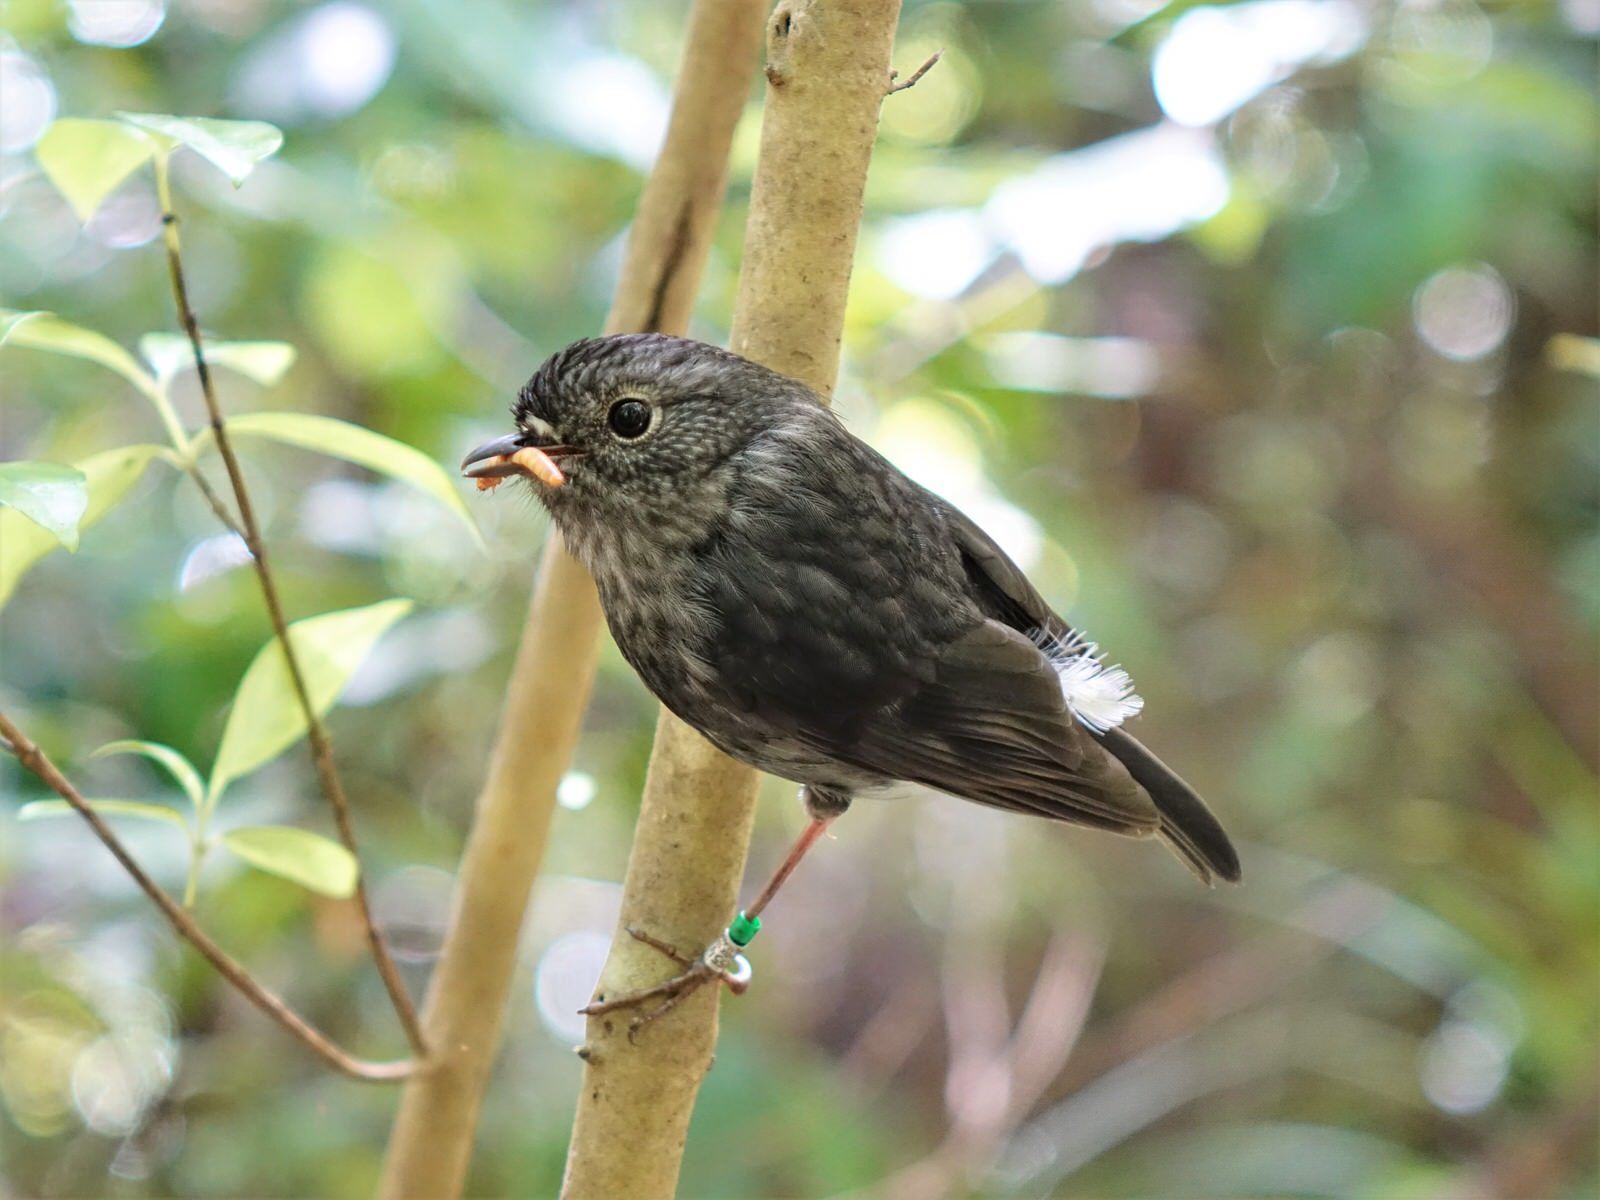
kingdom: Animalia
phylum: Chordata
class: Aves
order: Passeriformes
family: Petroicidae
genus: Petroica
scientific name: Petroica australis
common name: New zealand robin
